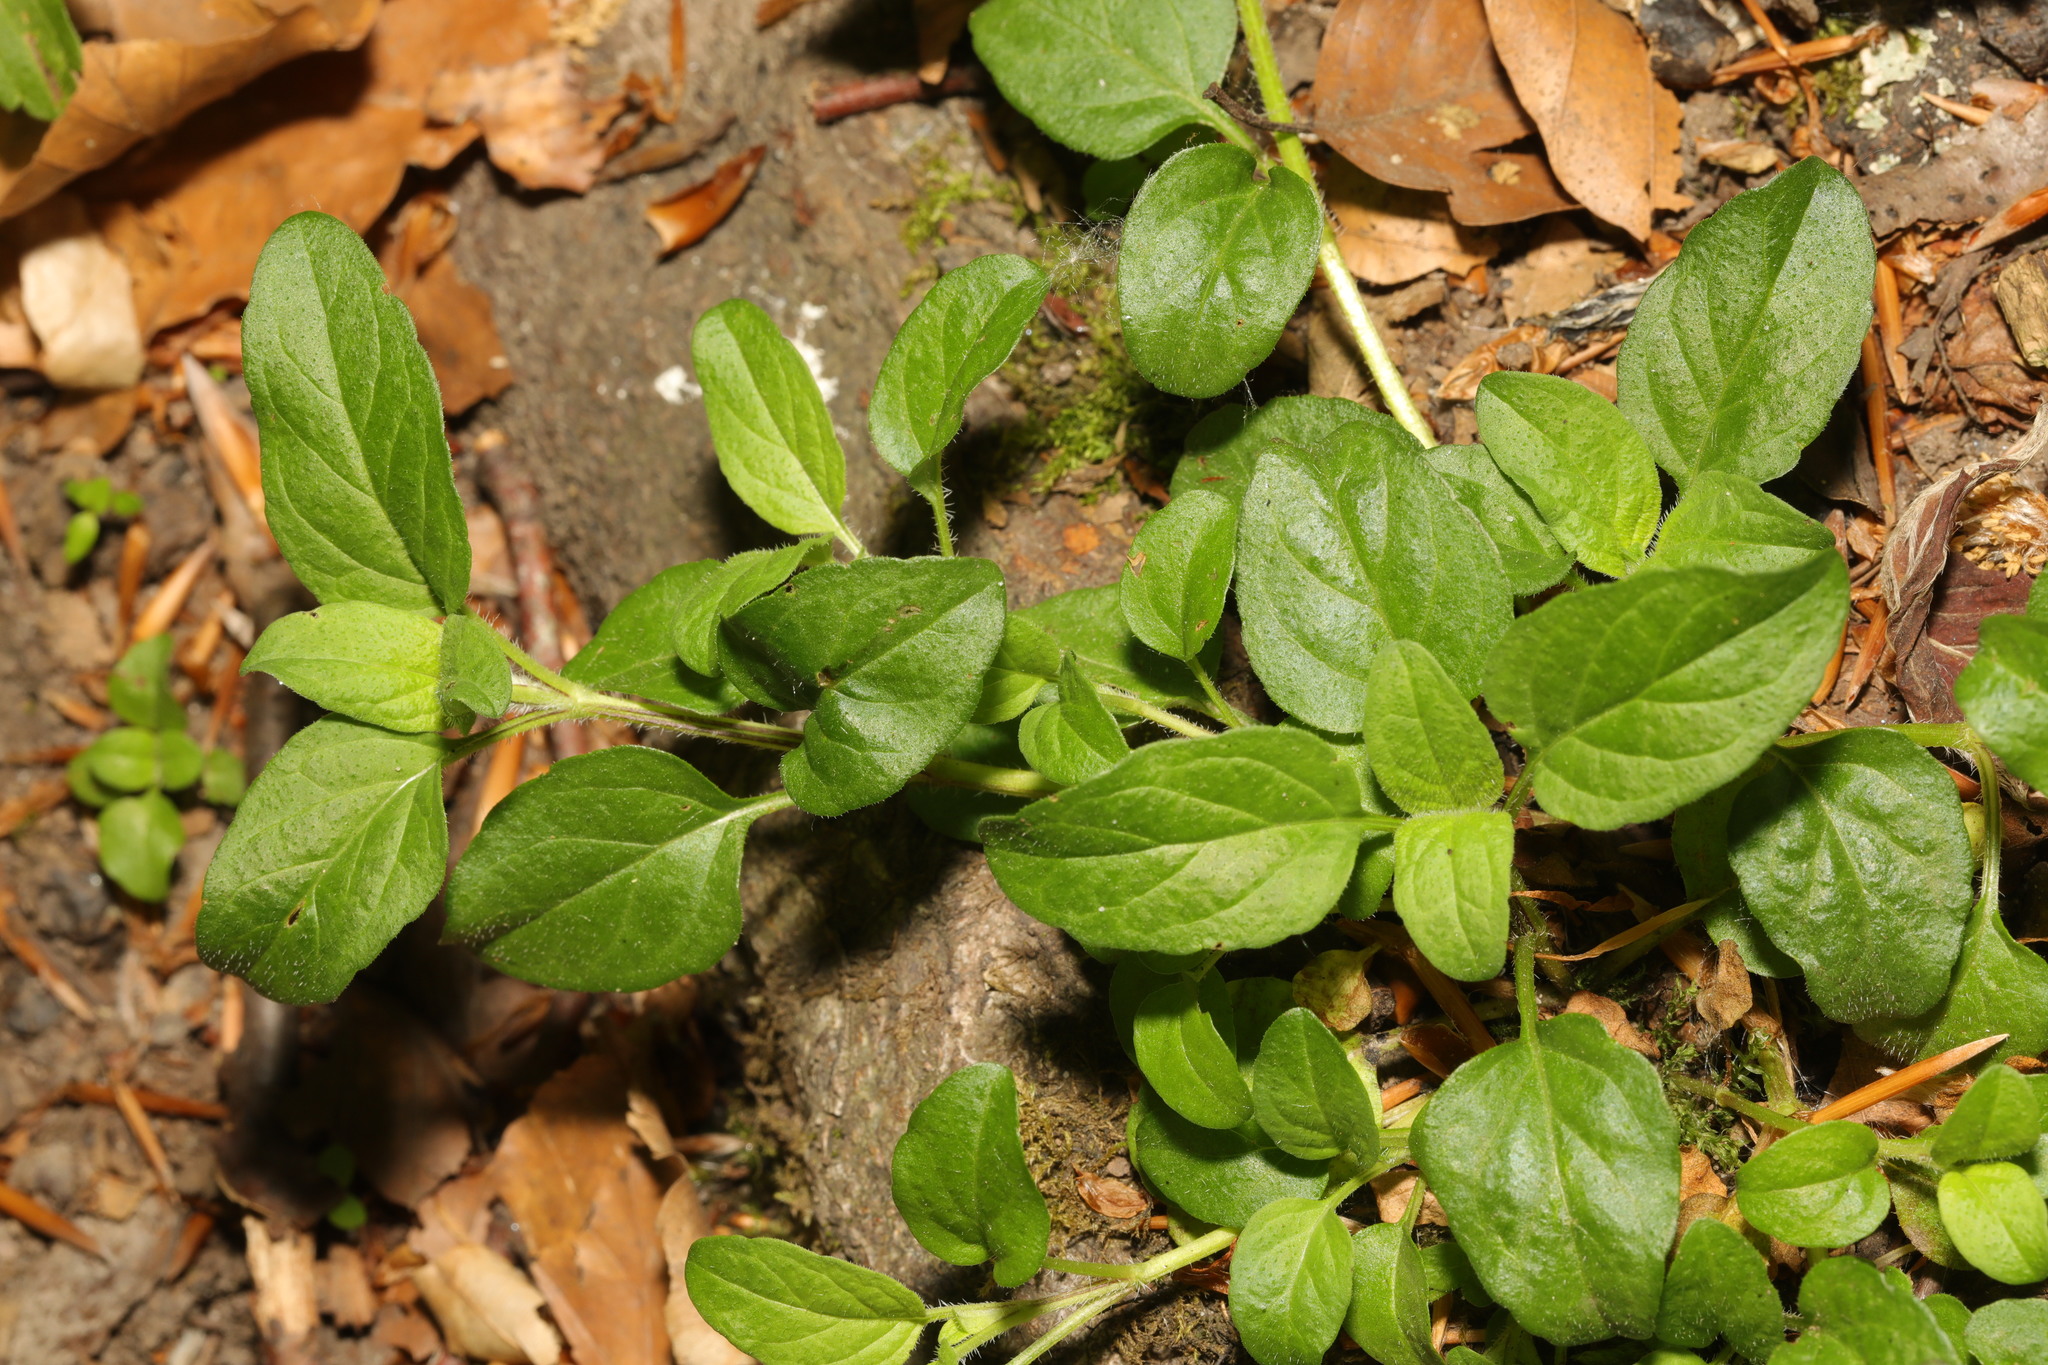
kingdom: Plantae
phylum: Tracheophyta
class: Magnoliopsida
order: Lamiales
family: Lamiaceae
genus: Prunella
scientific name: Prunella vulgaris
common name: Heal-all
